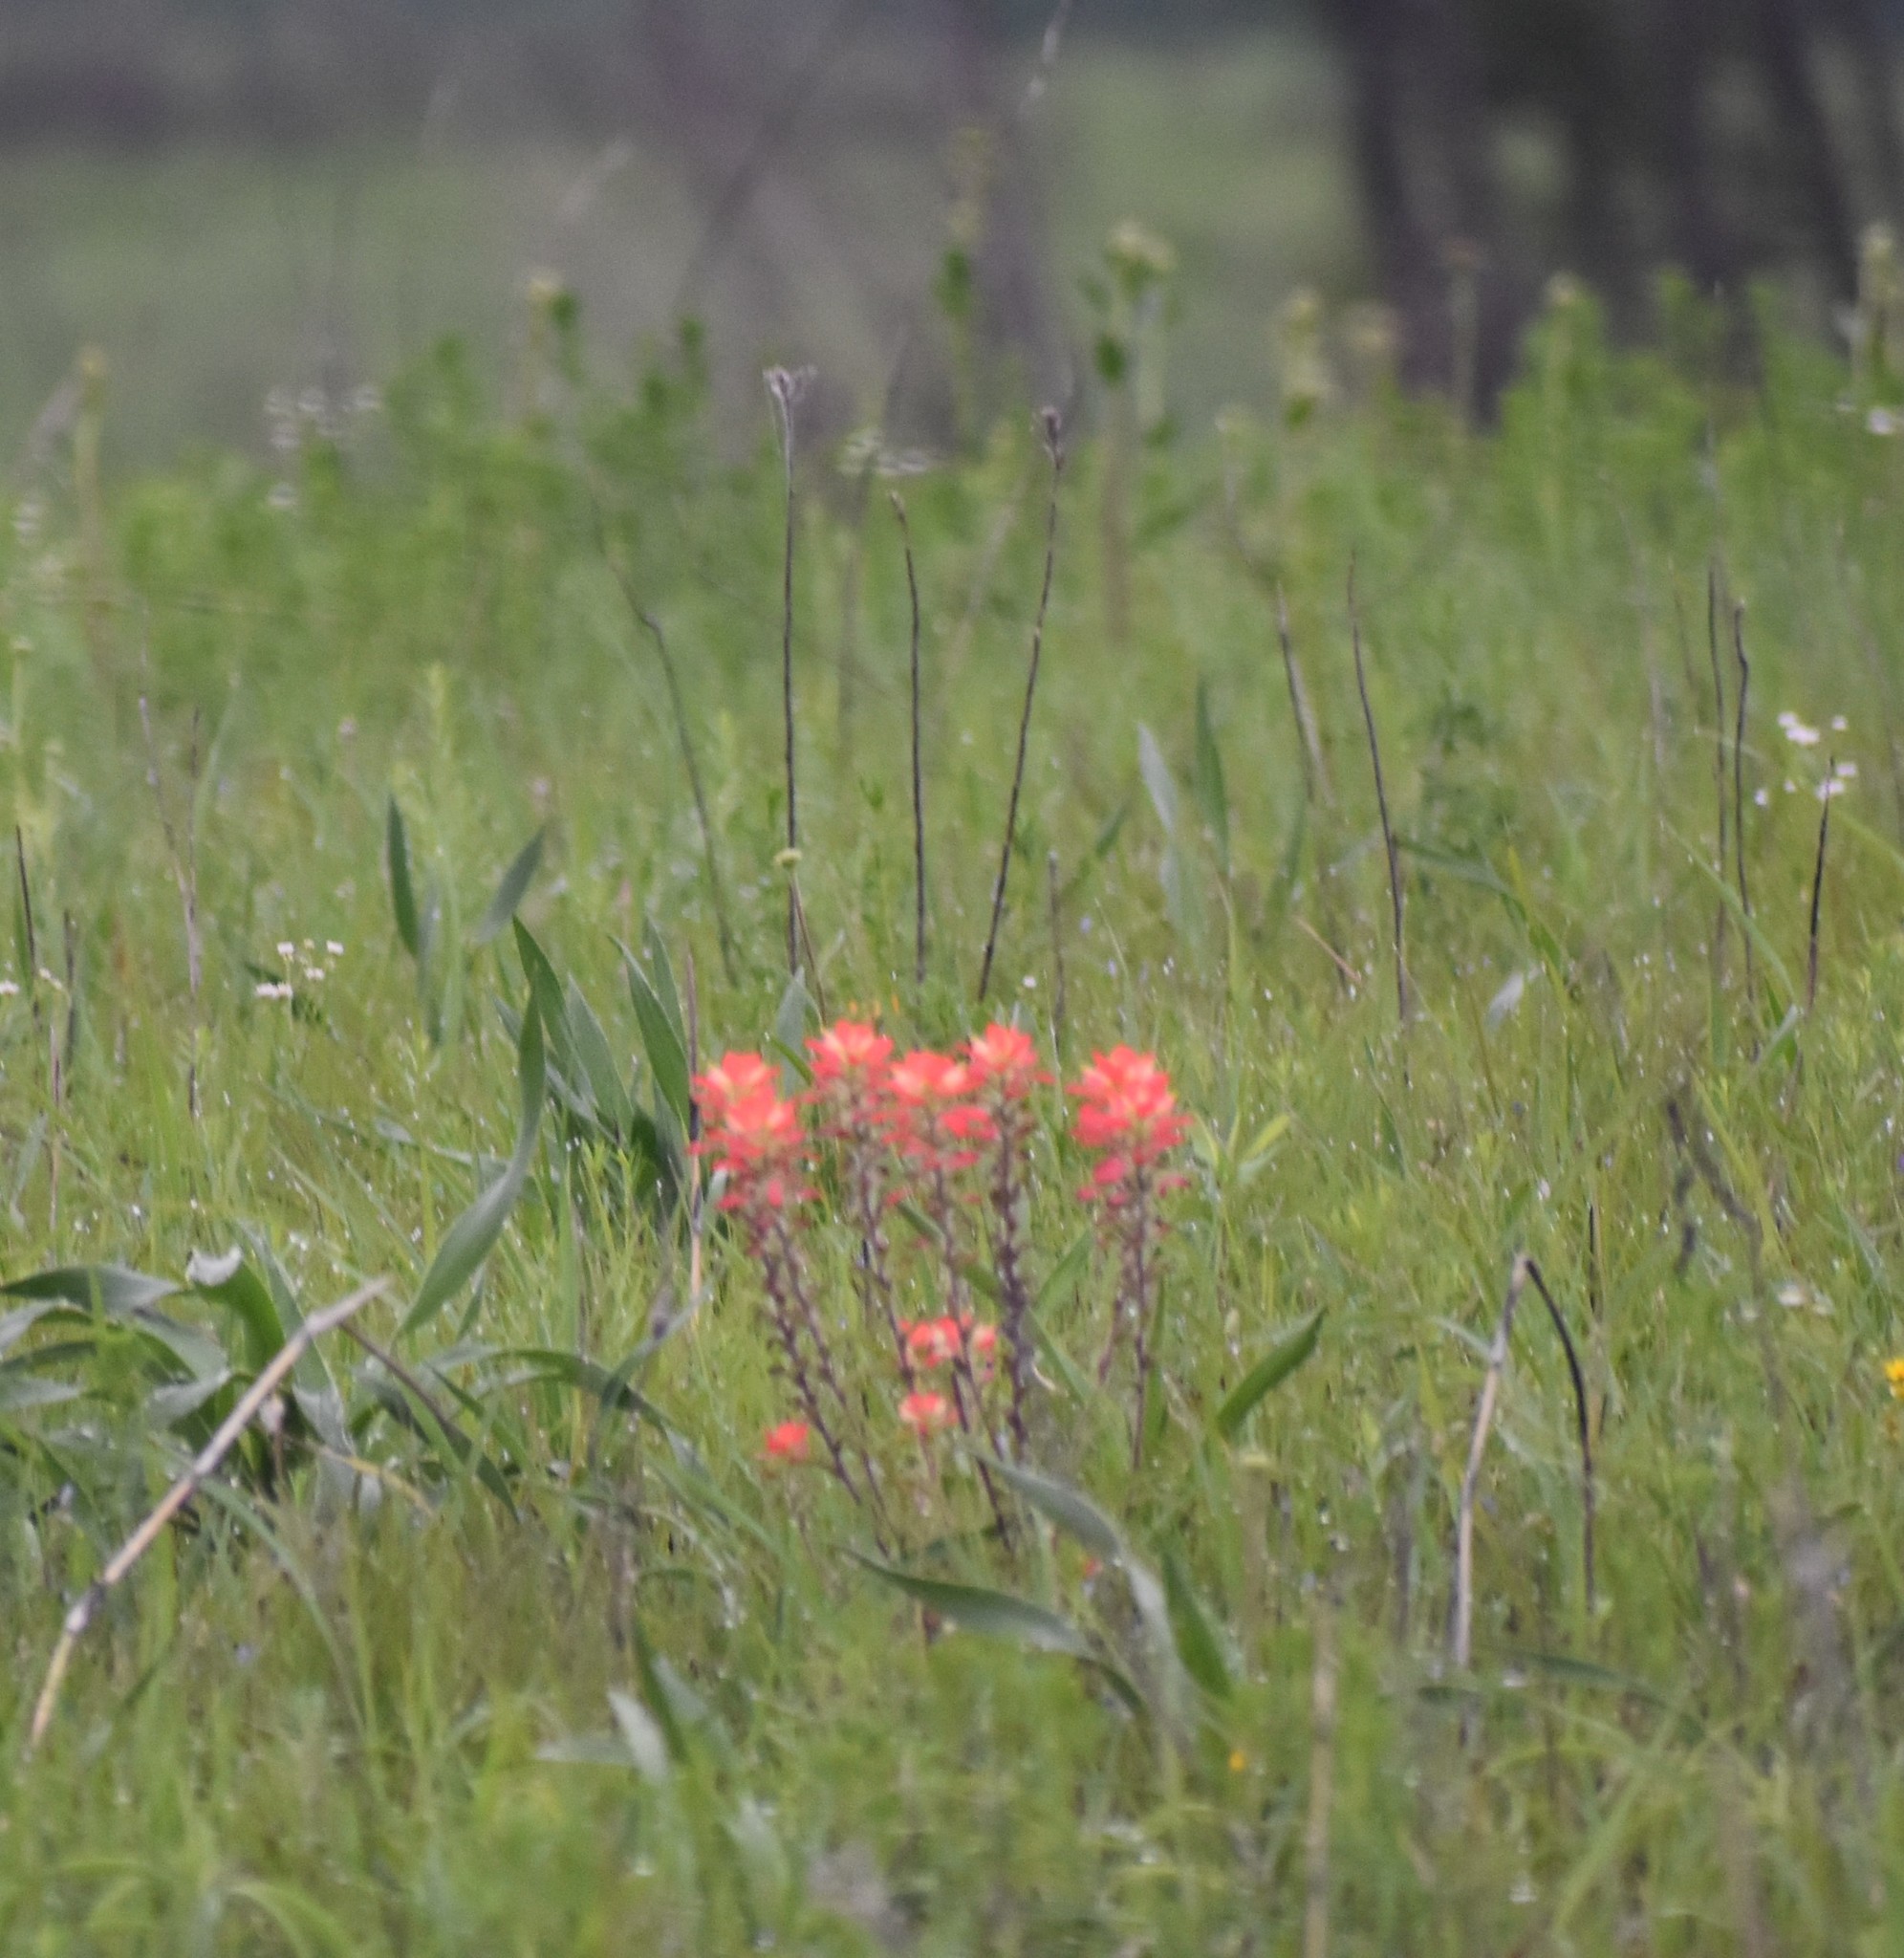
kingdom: Plantae
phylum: Tracheophyta
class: Magnoliopsida
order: Lamiales
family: Orobanchaceae
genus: Castilleja
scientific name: Castilleja indivisa
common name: Texas paintbrush
